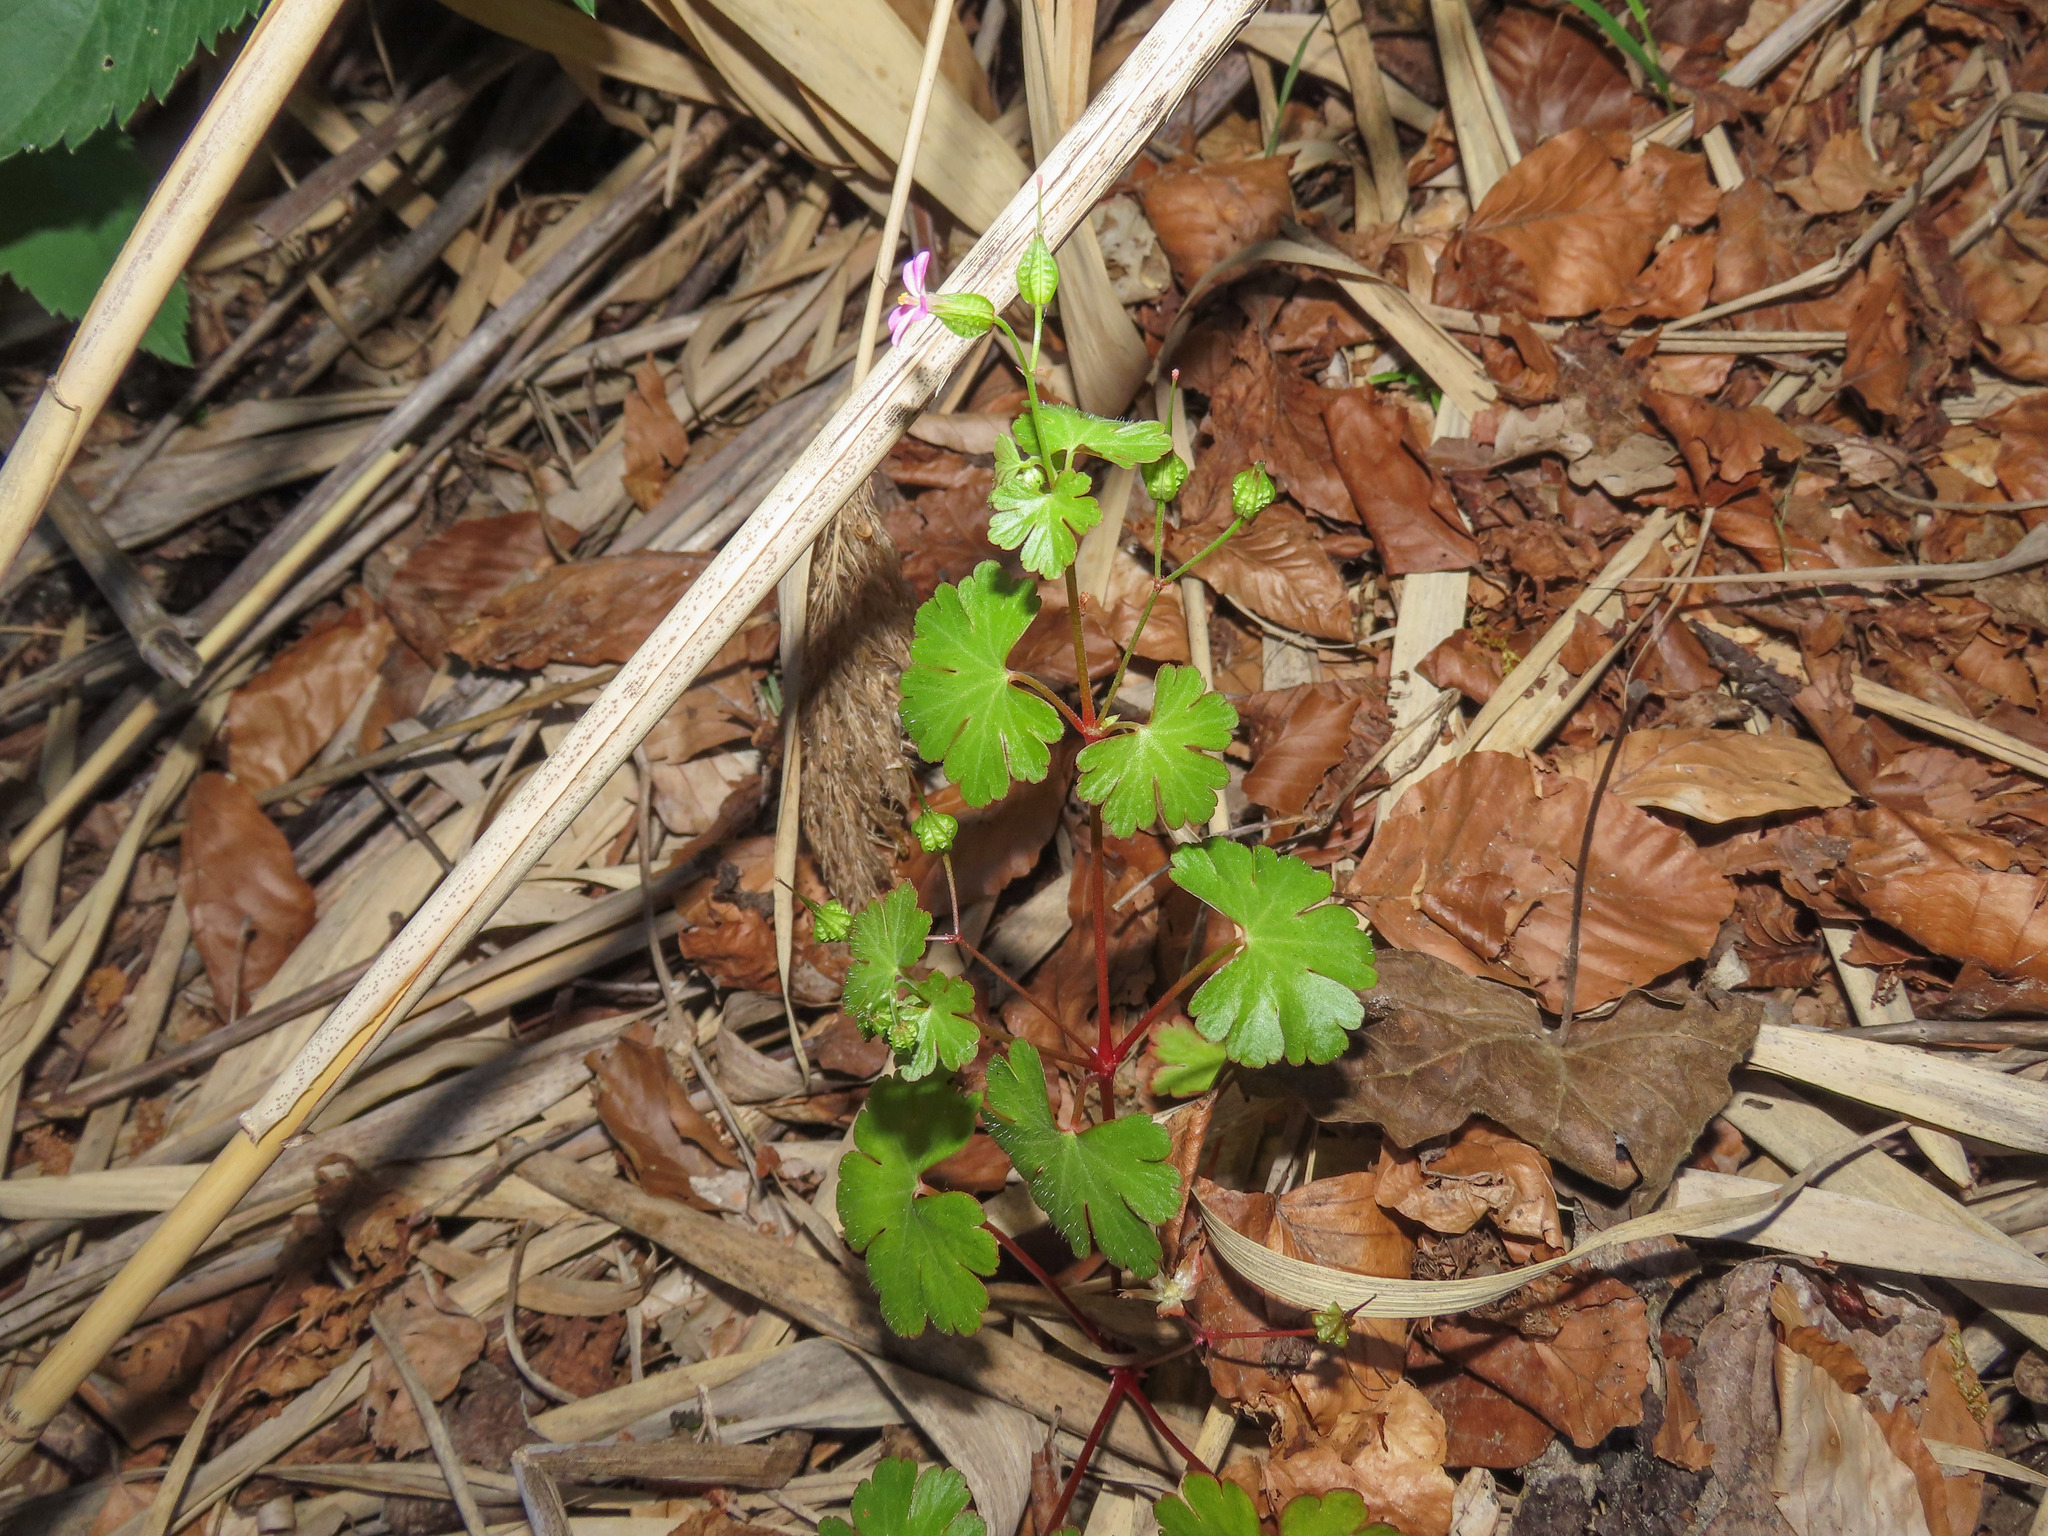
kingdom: Plantae
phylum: Tracheophyta
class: Magnoliopsida
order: Geraniales
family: Geraniaceae
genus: Geranium
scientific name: Geranium lucidum
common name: Shining crane's-bill
